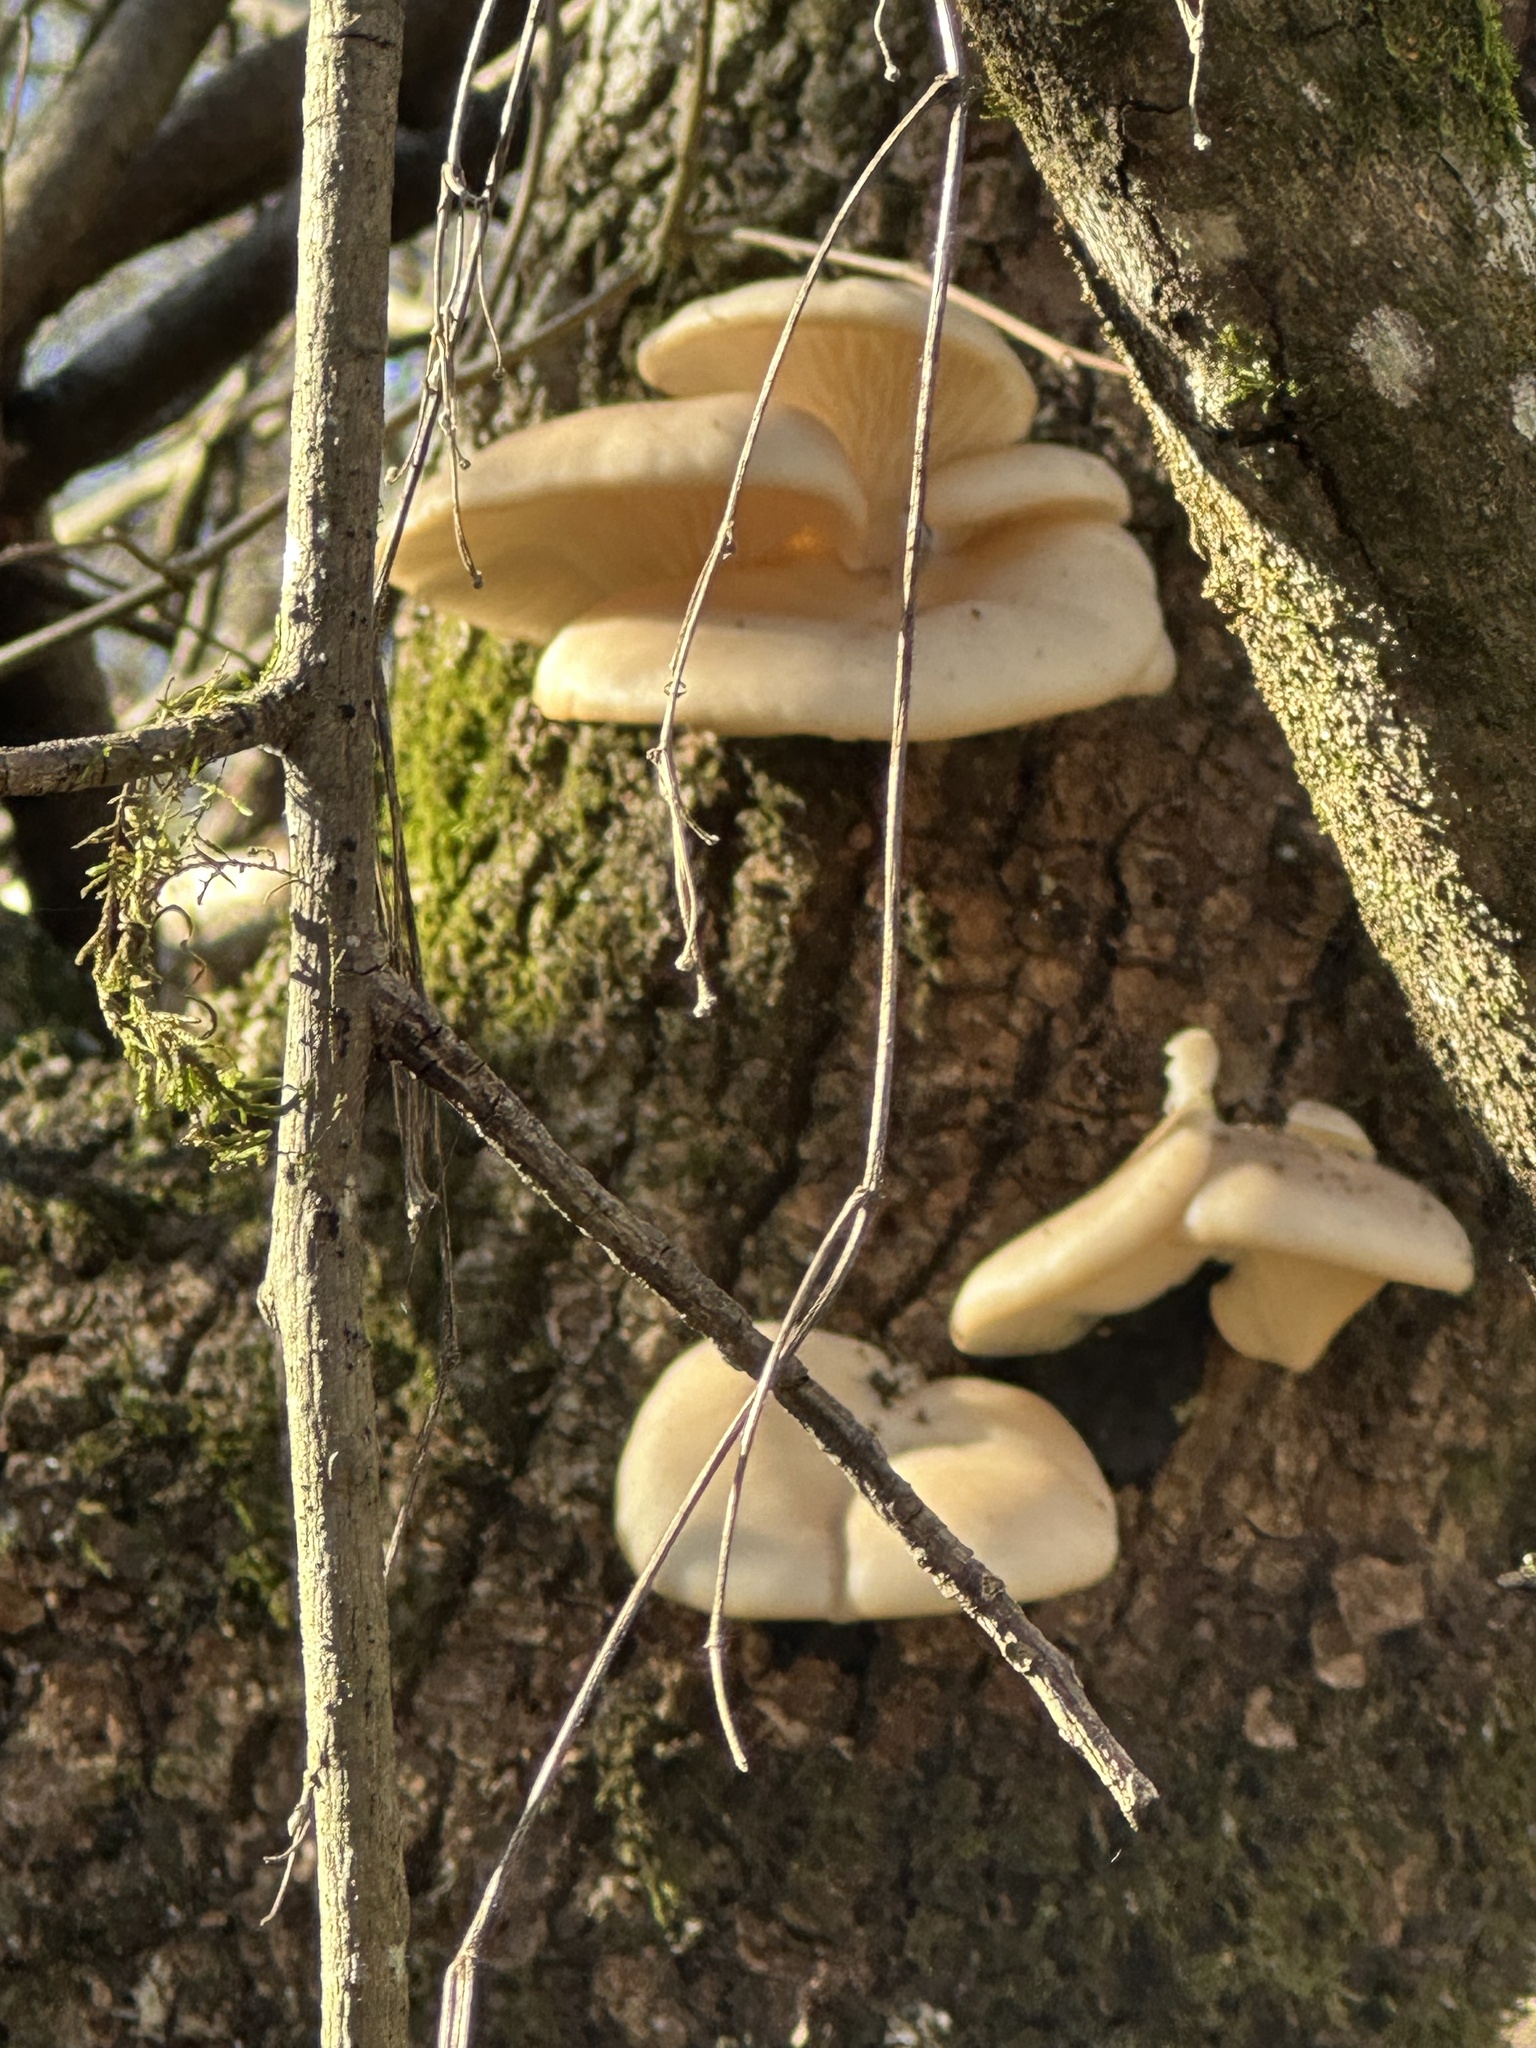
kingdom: Fungi
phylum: Basidiomycota
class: Agaricomycetes
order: Agaricales
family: Pleurotaceae
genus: Pleurotus
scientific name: Pleurotus ostreatus
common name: Oyster mushroom
